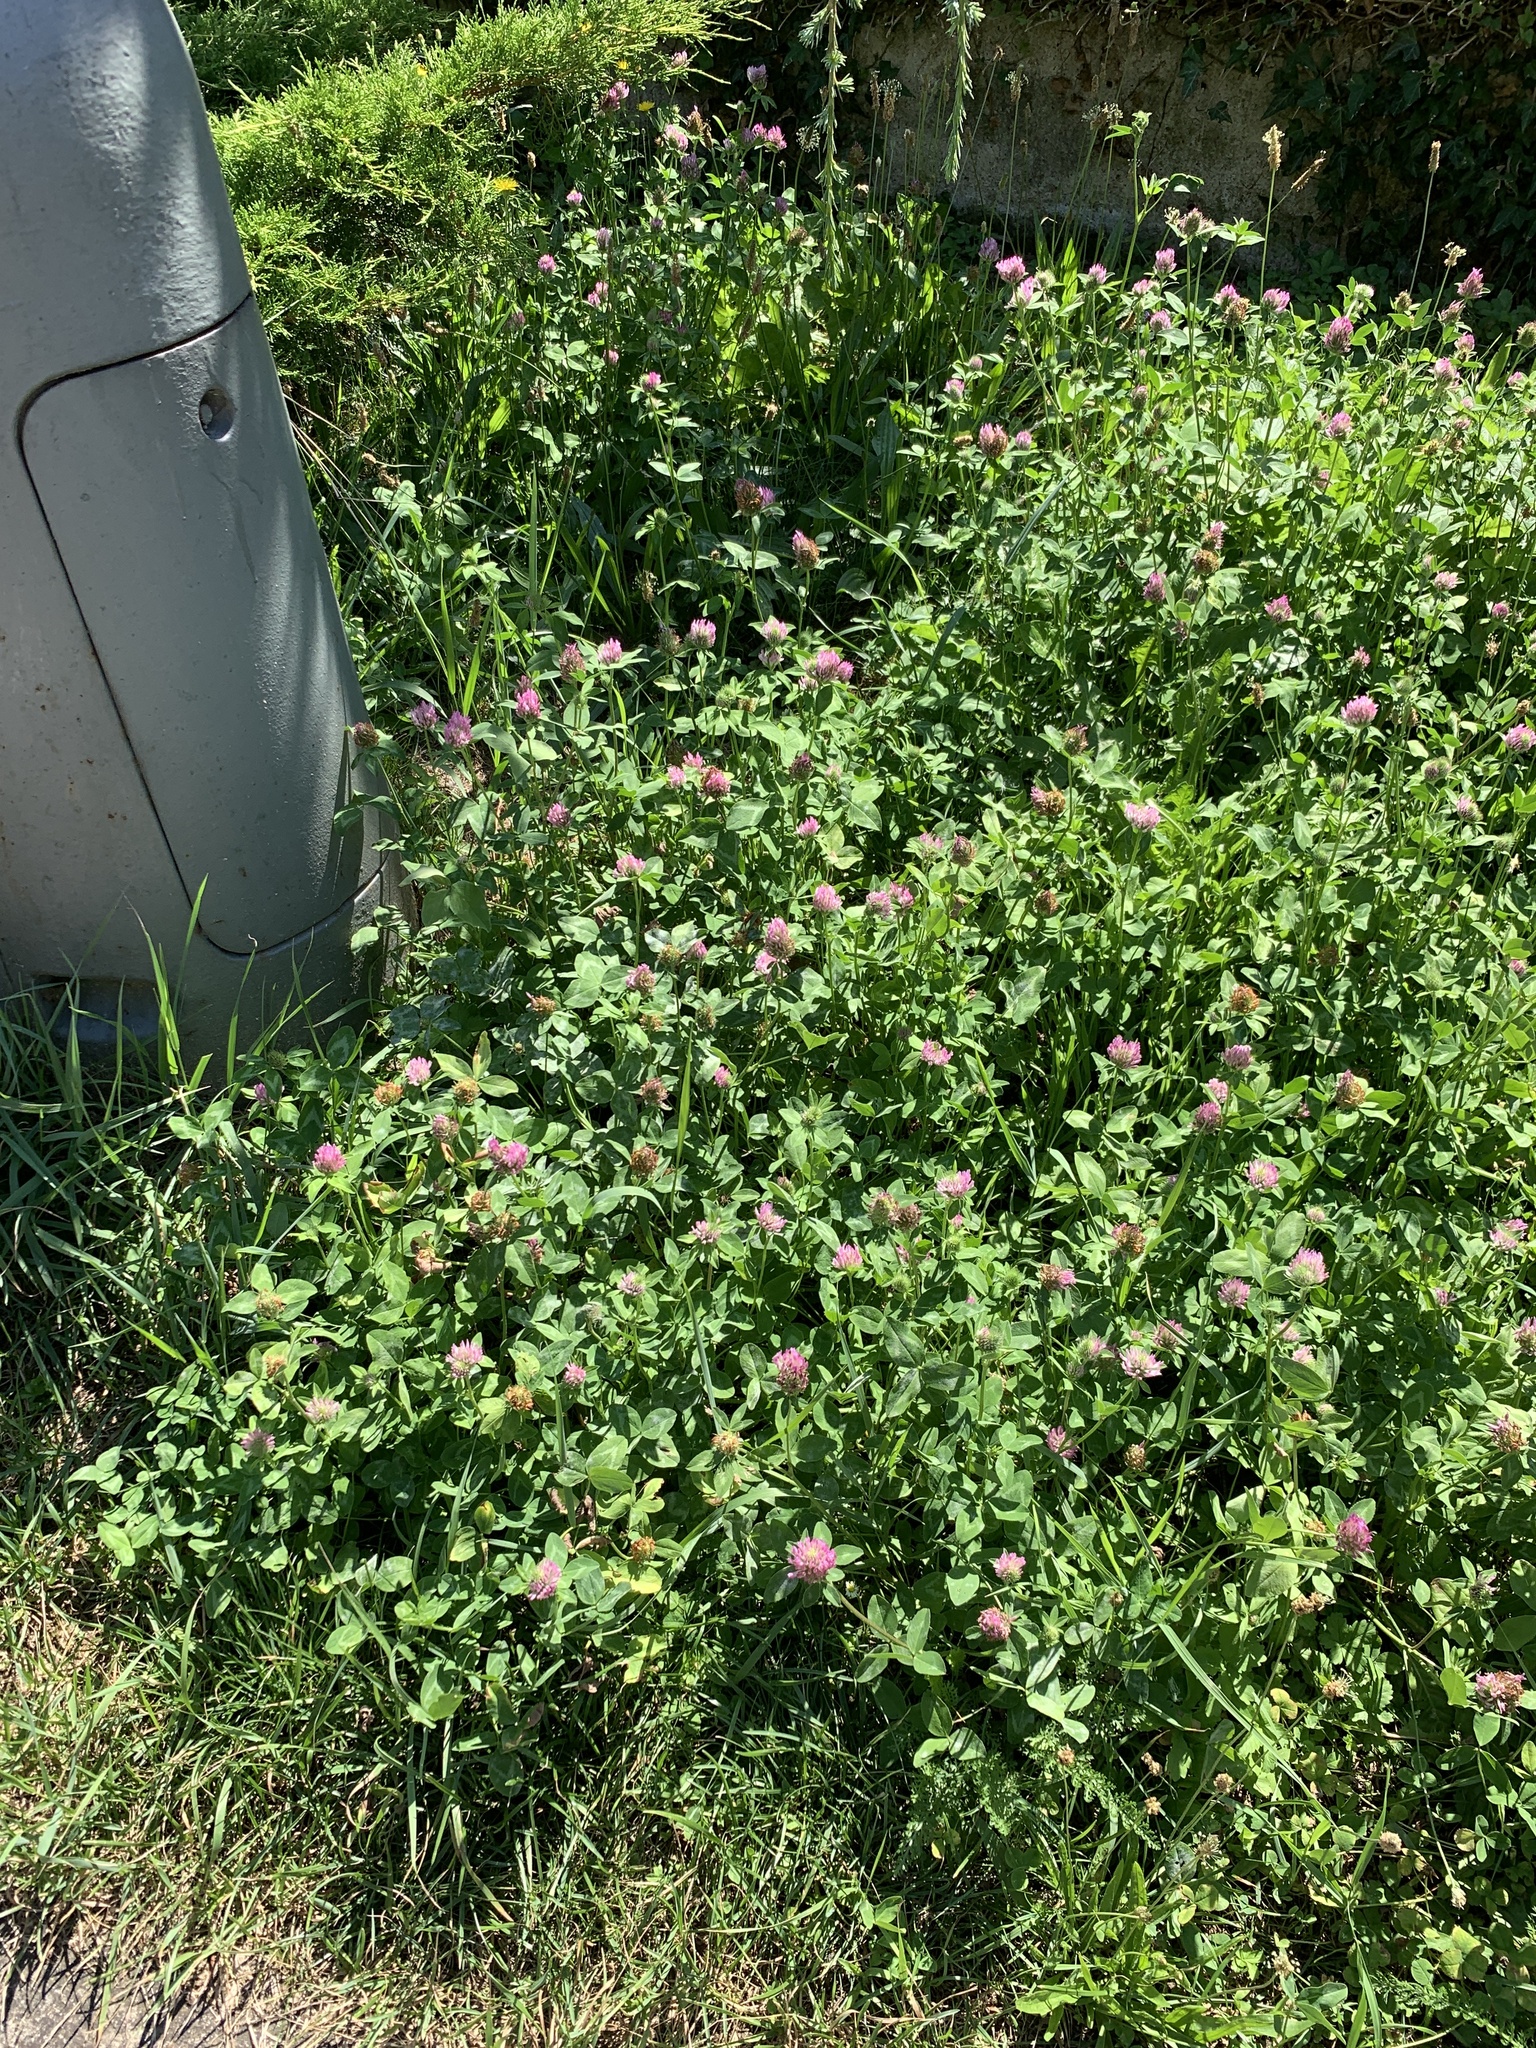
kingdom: Plantae
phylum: Tracheophyta
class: Magnoliopsida
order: Fabales
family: Fabaceae
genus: Trifolium
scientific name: Trifolium pratense
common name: Red clover
